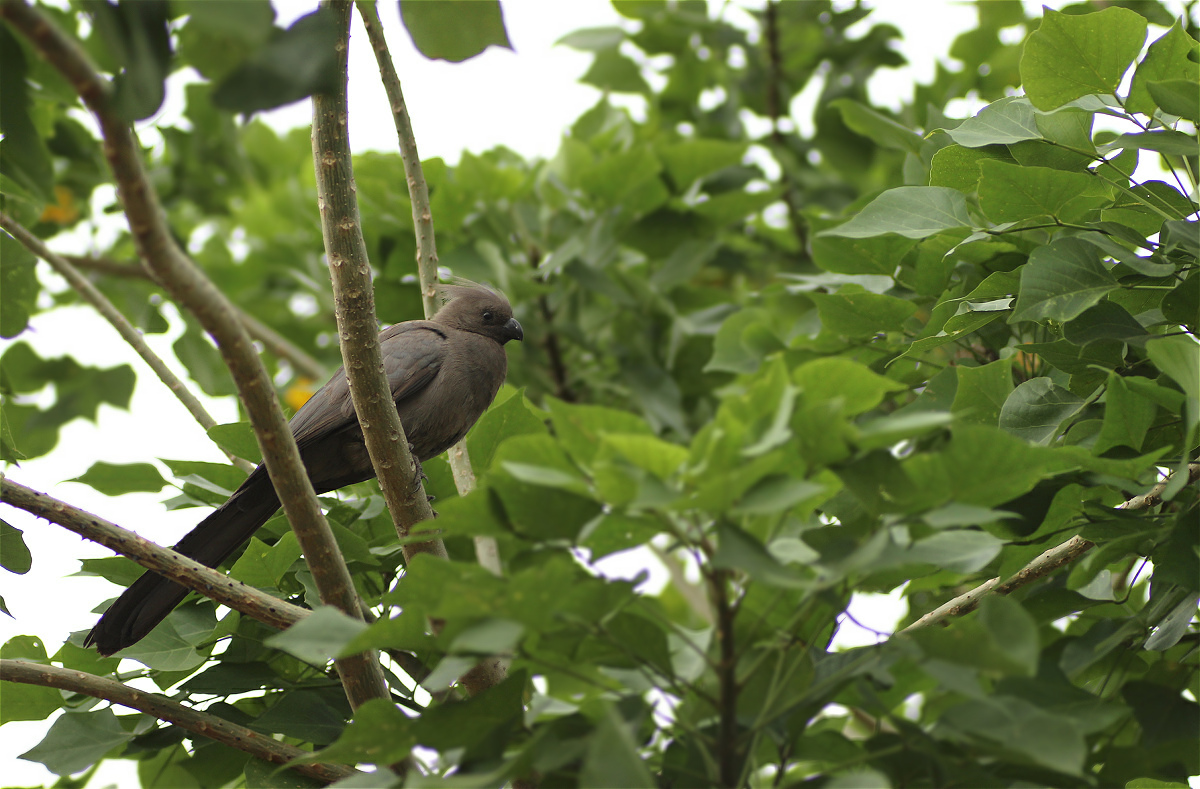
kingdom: Animalia
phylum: Chordata
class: Aves
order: Musophagiformes
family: Musophagidae
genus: Corythaixoides
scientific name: Corythaixoides concolor
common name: Grey go-away-bird
